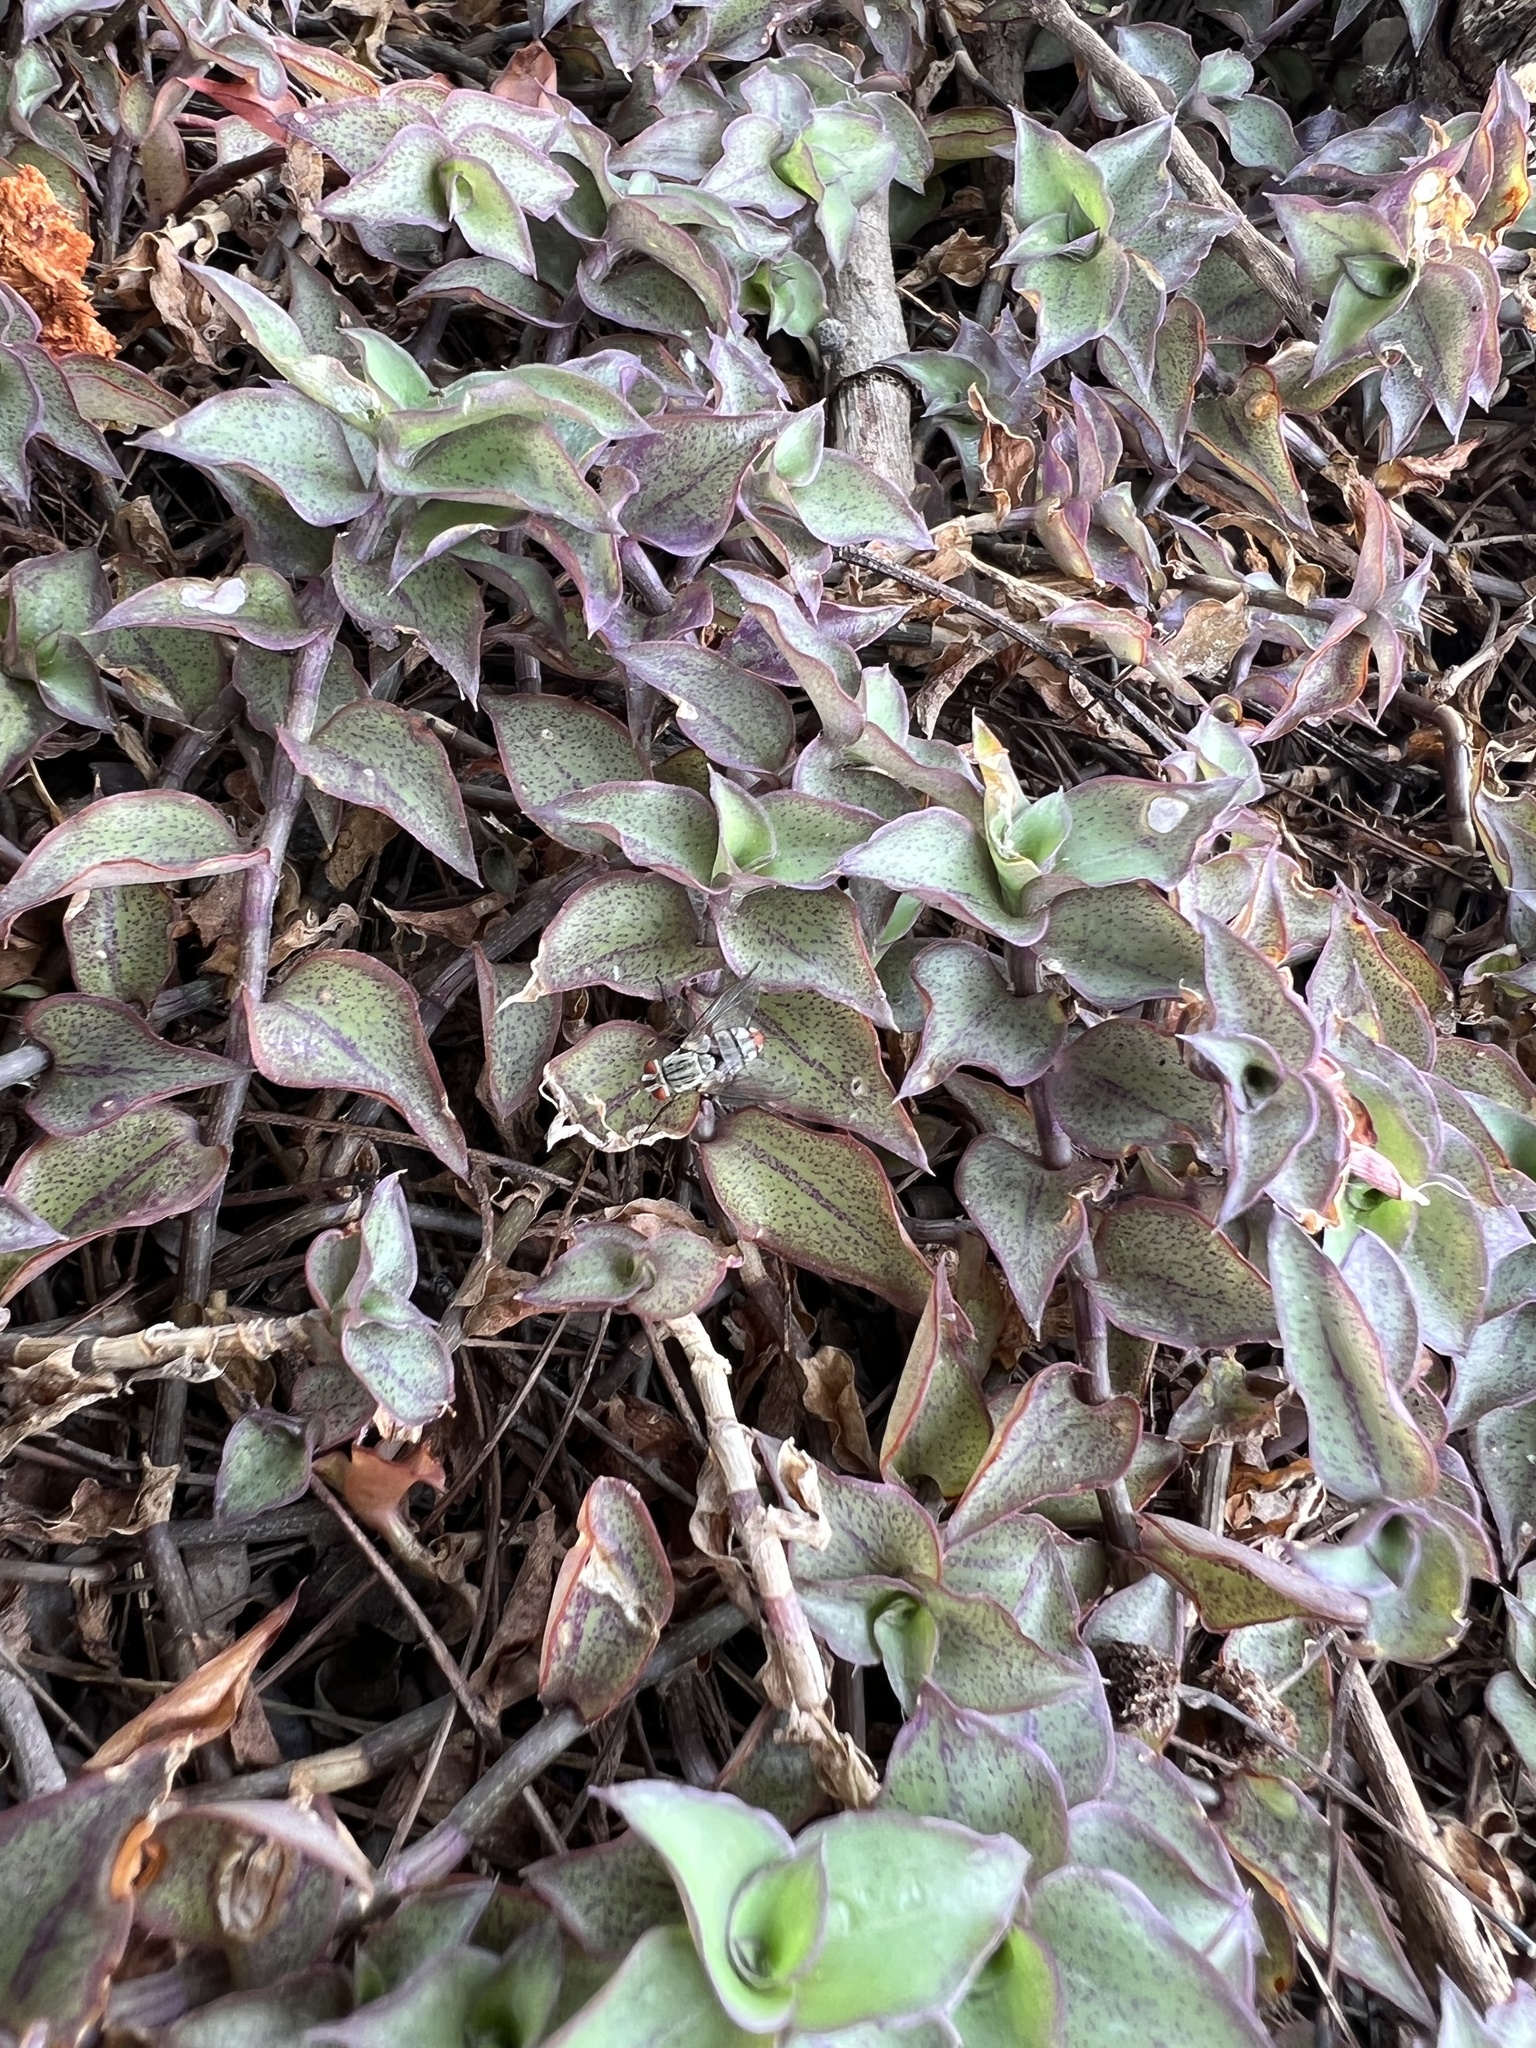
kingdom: Plantae
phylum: Tracheophyta
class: Liliopsida
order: Commelinales
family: Commelinaceae
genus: Callisia
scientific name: Callisia repens
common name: Creeping inchplant
